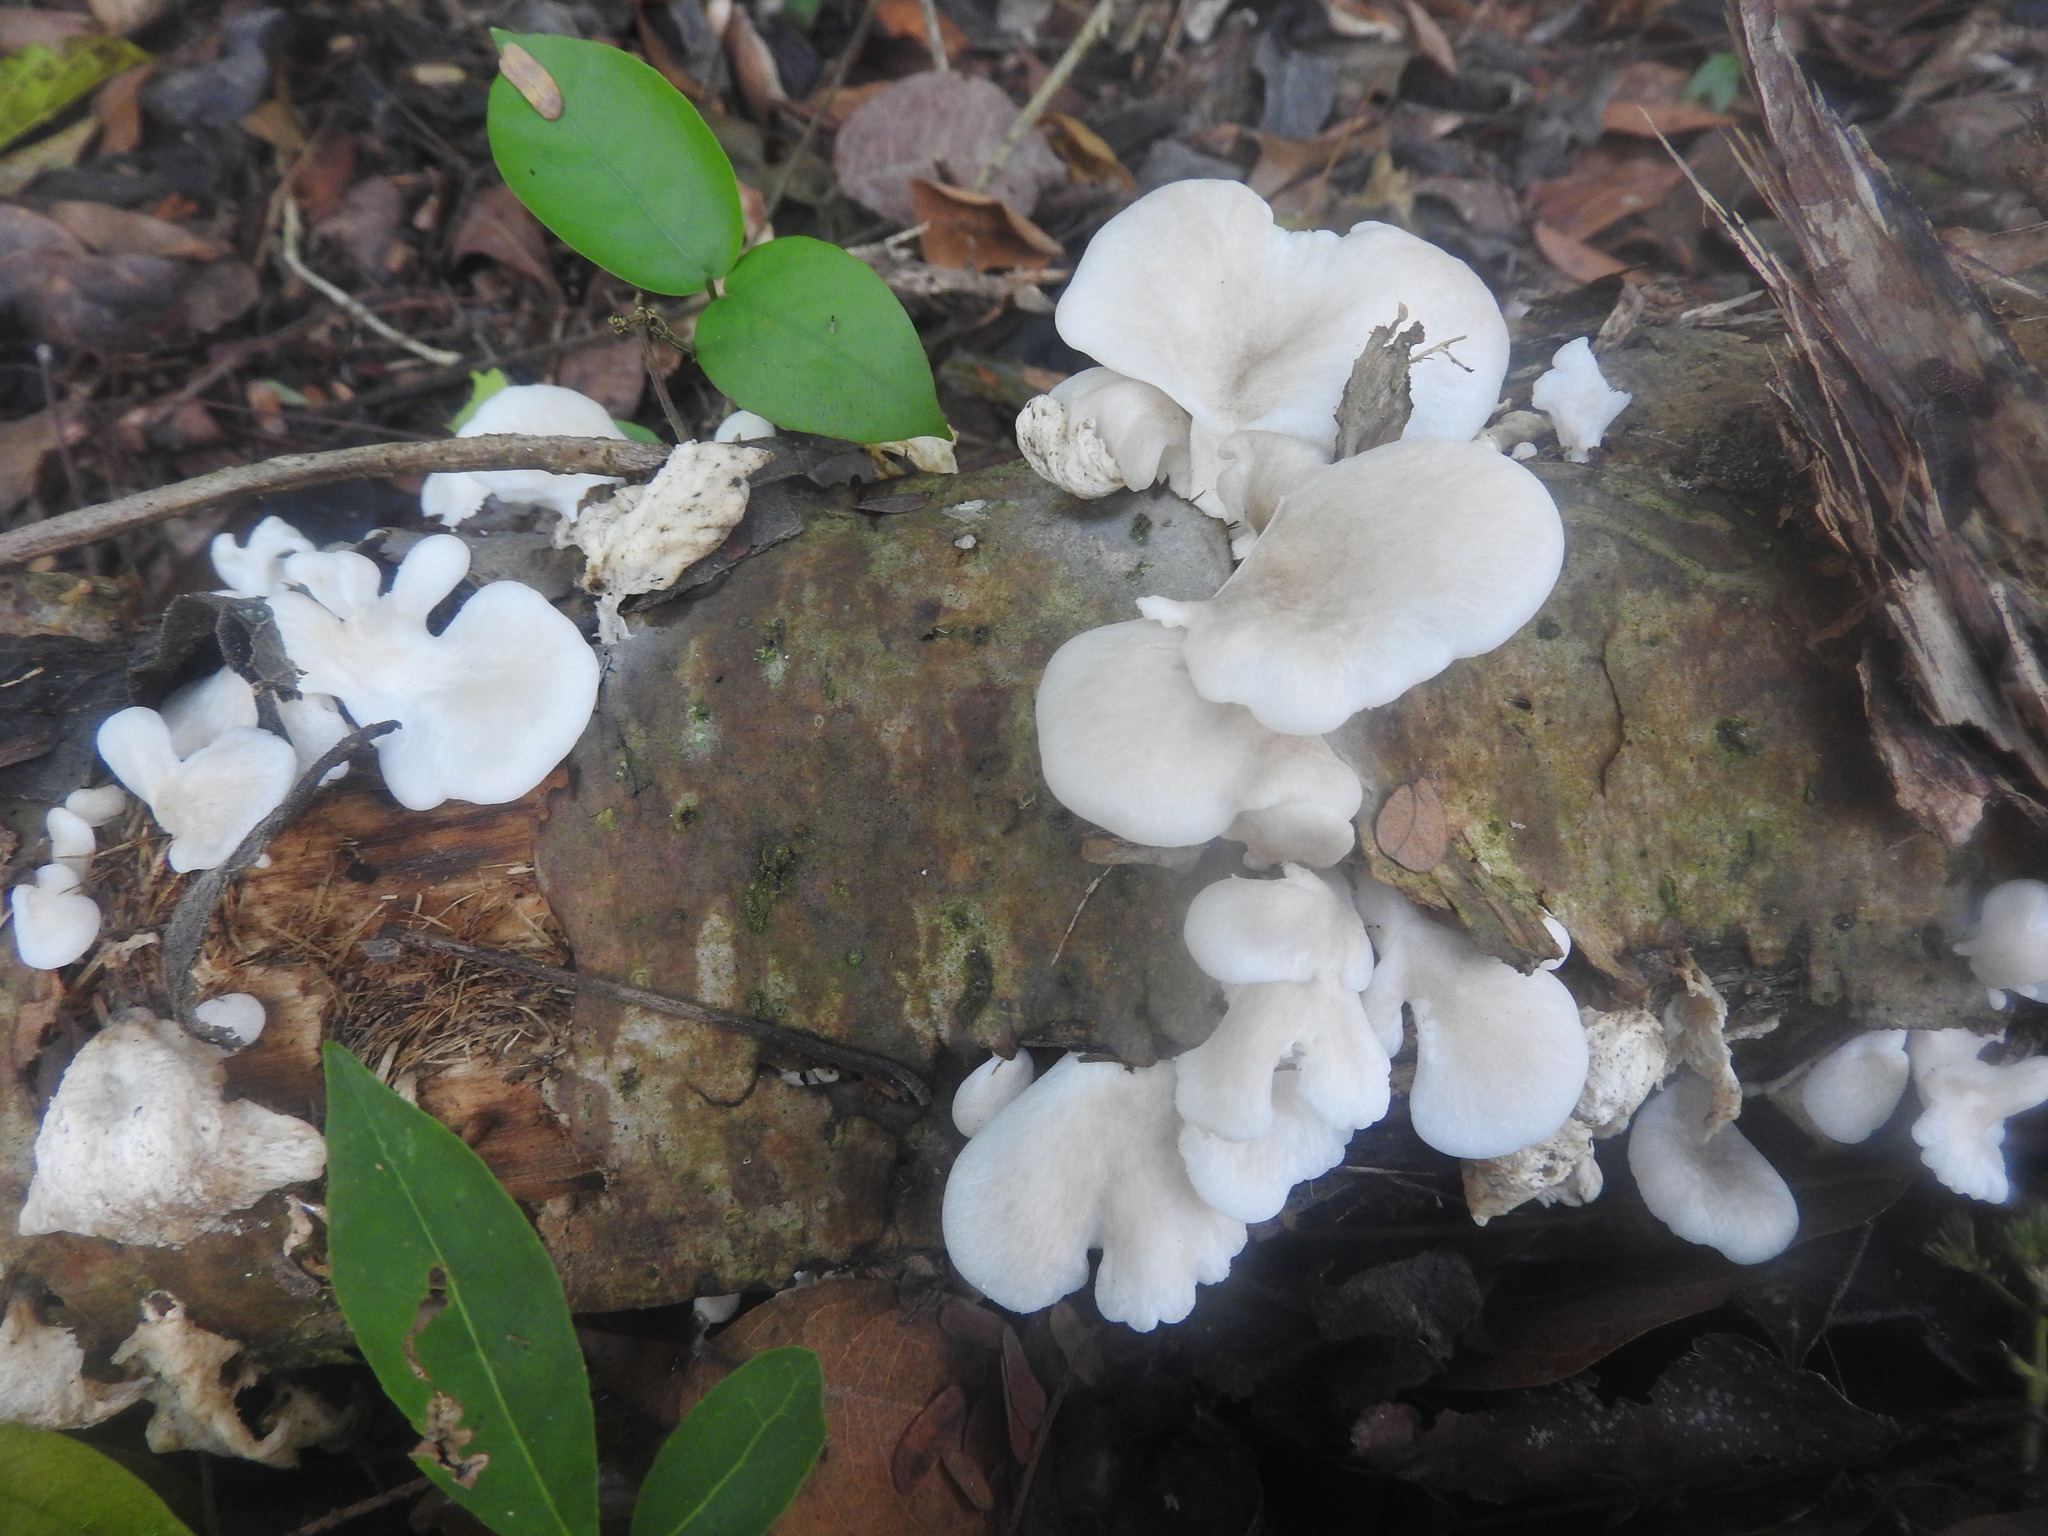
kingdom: Fungi
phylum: Basidiomycota
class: Agaricomycetes
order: Polyporales
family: Polyporaceae
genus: Favolus
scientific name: Favolus tenuiculus
